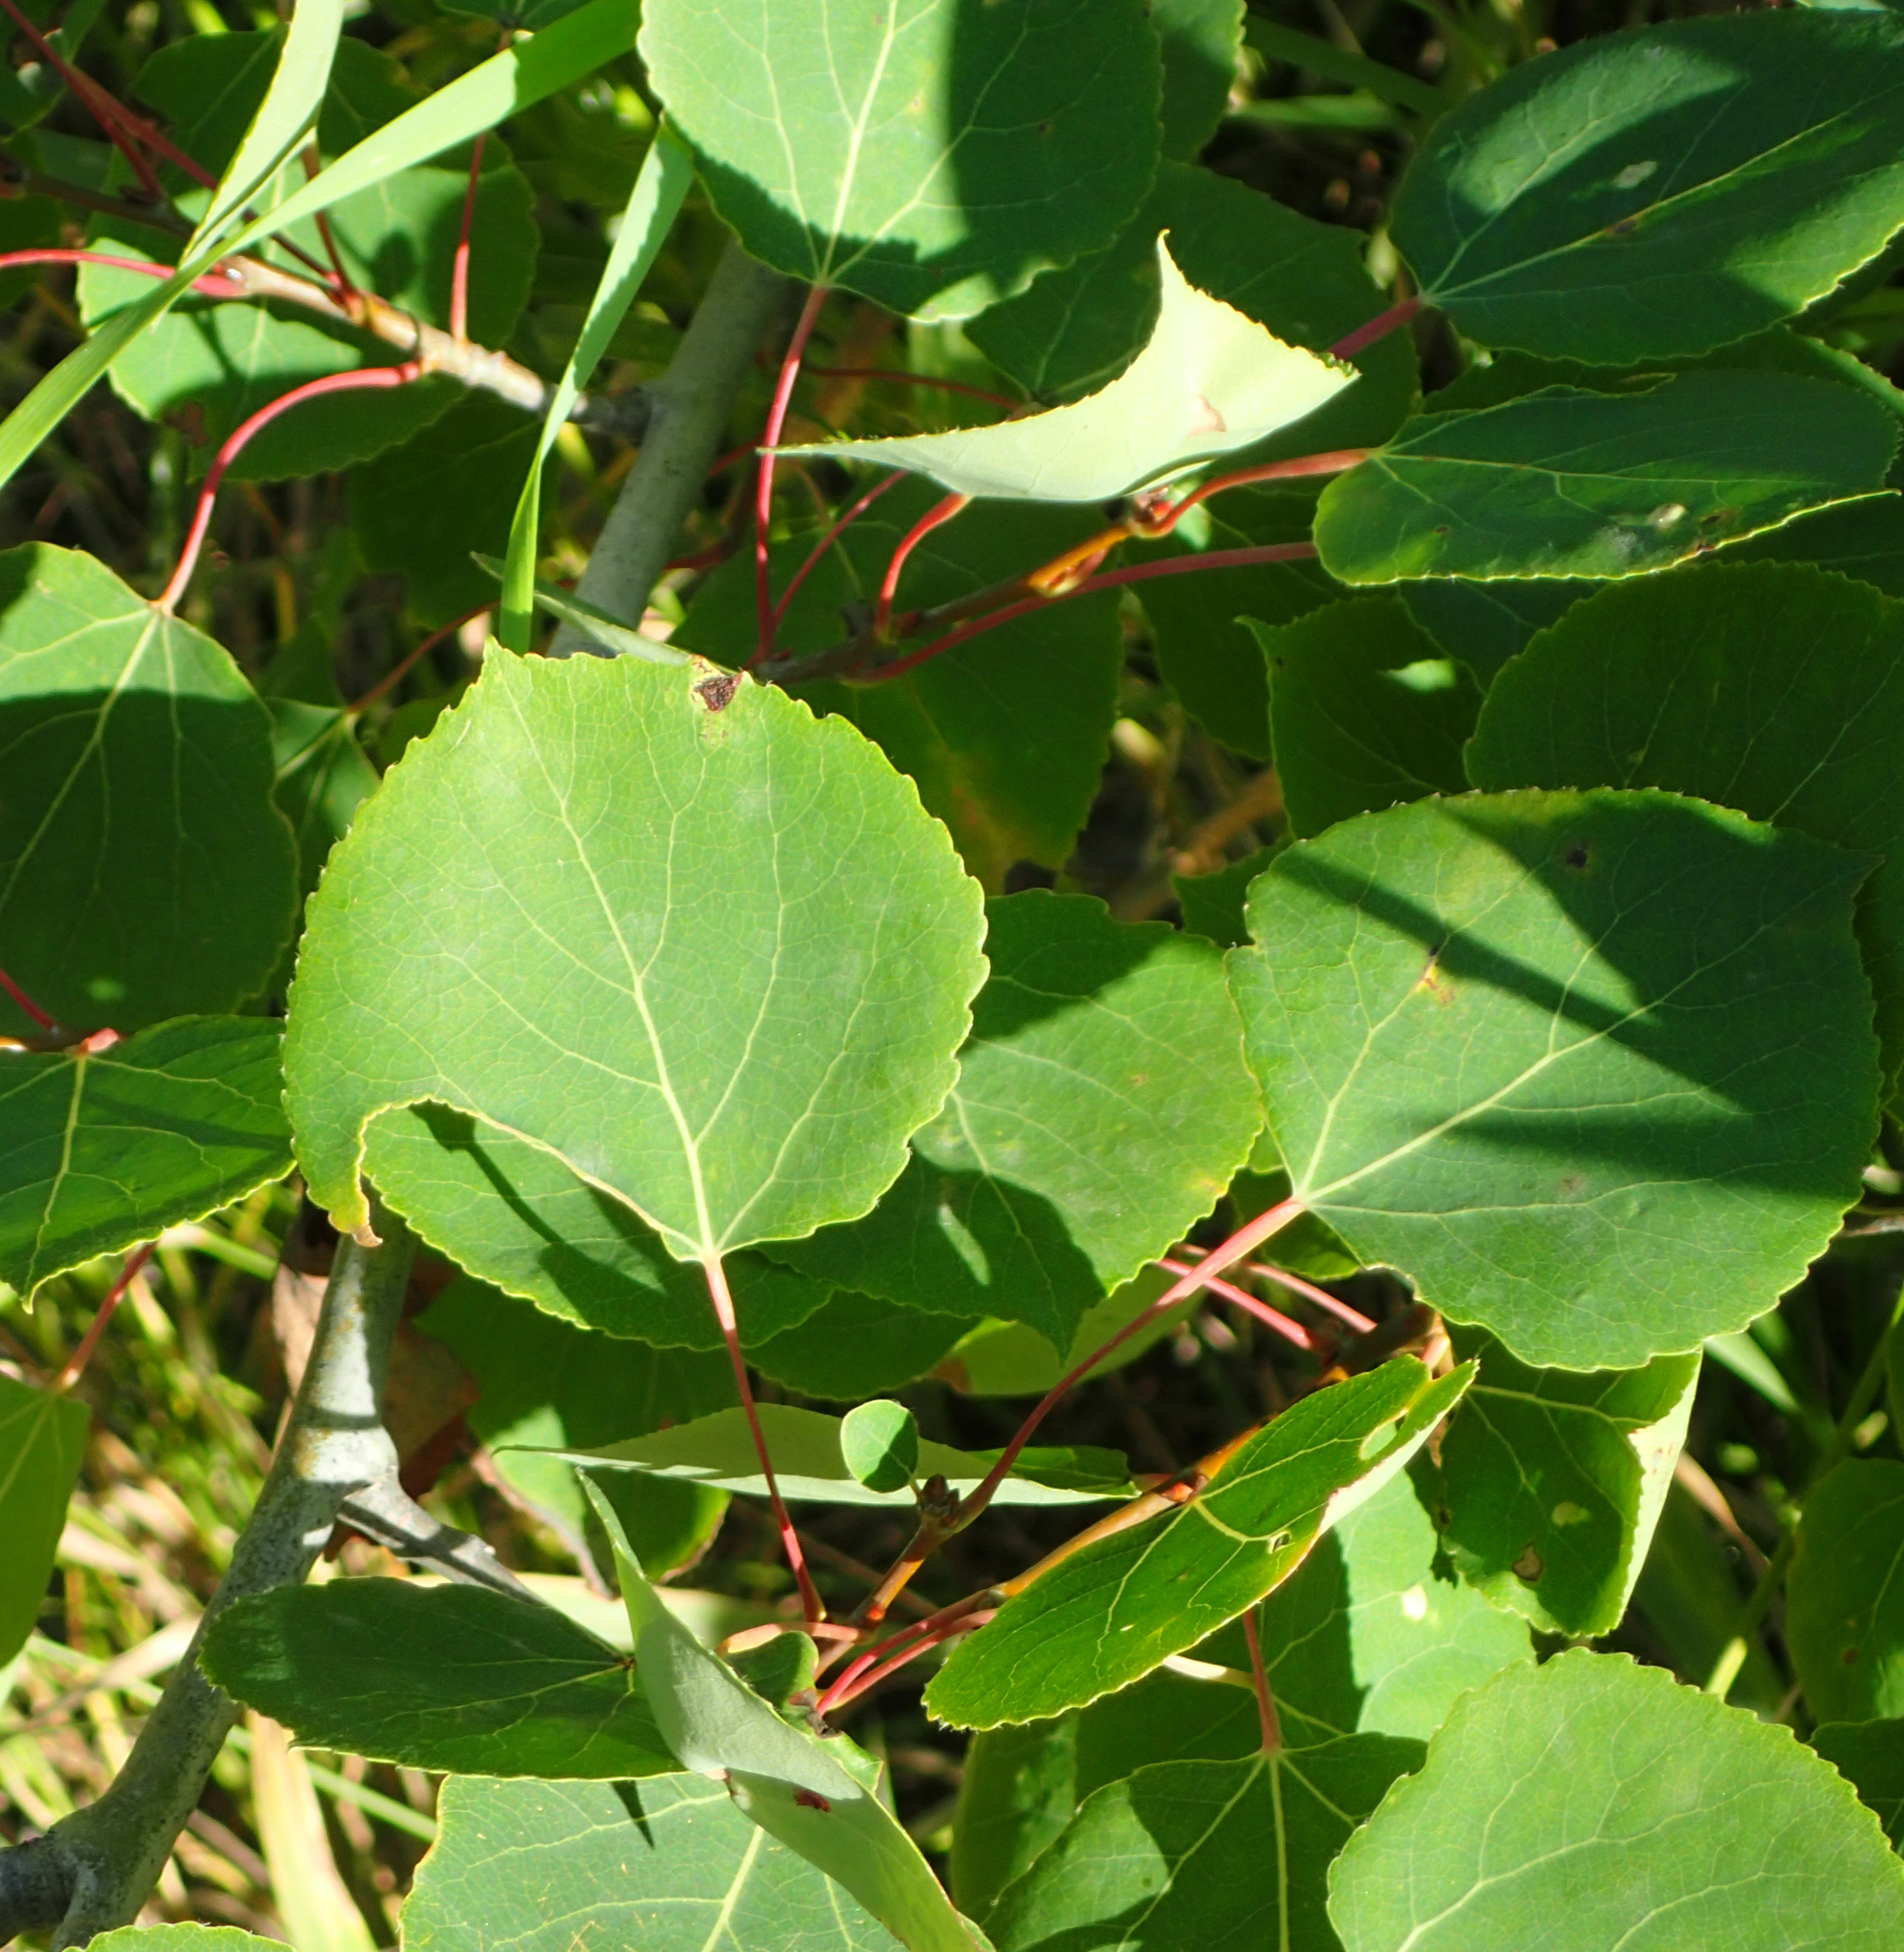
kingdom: Plantae
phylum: Tracheophyta
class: Magnoliopsida
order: Malpighiales
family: Salicaceae
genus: Populus
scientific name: Populus tremuloides
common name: Quaking aspen
